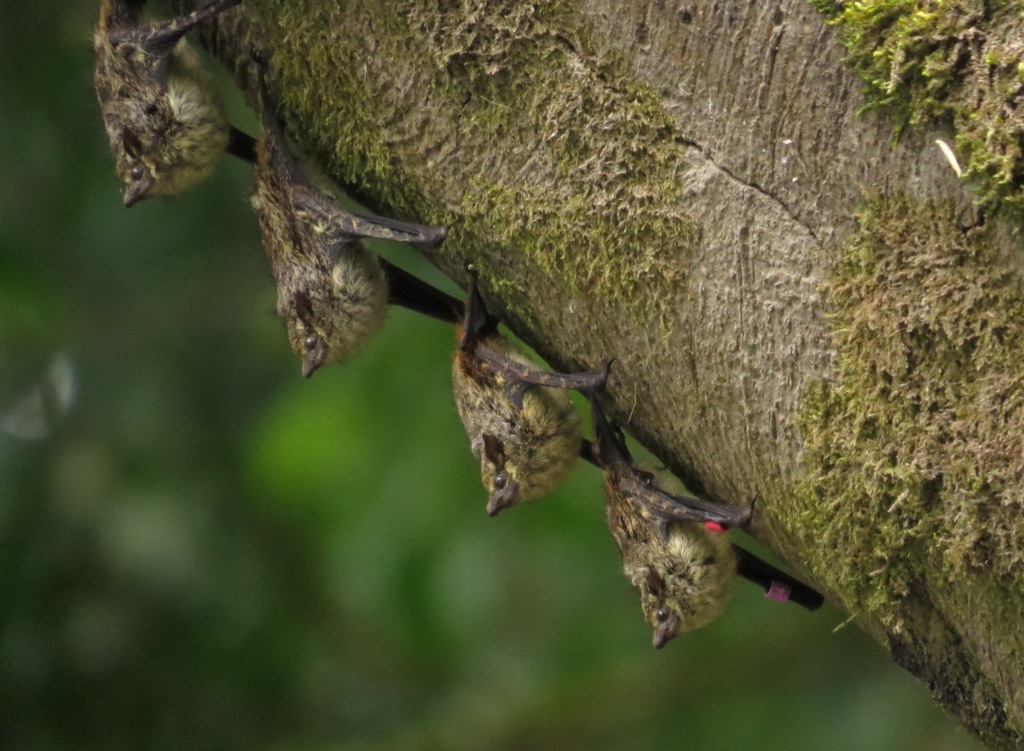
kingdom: Animalia
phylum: Chordata
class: Mammalia
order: Chiroptera
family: Emballonuridae
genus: Rhynchonycteris
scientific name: Rhynchonycteris naso
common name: Proboscis bat
